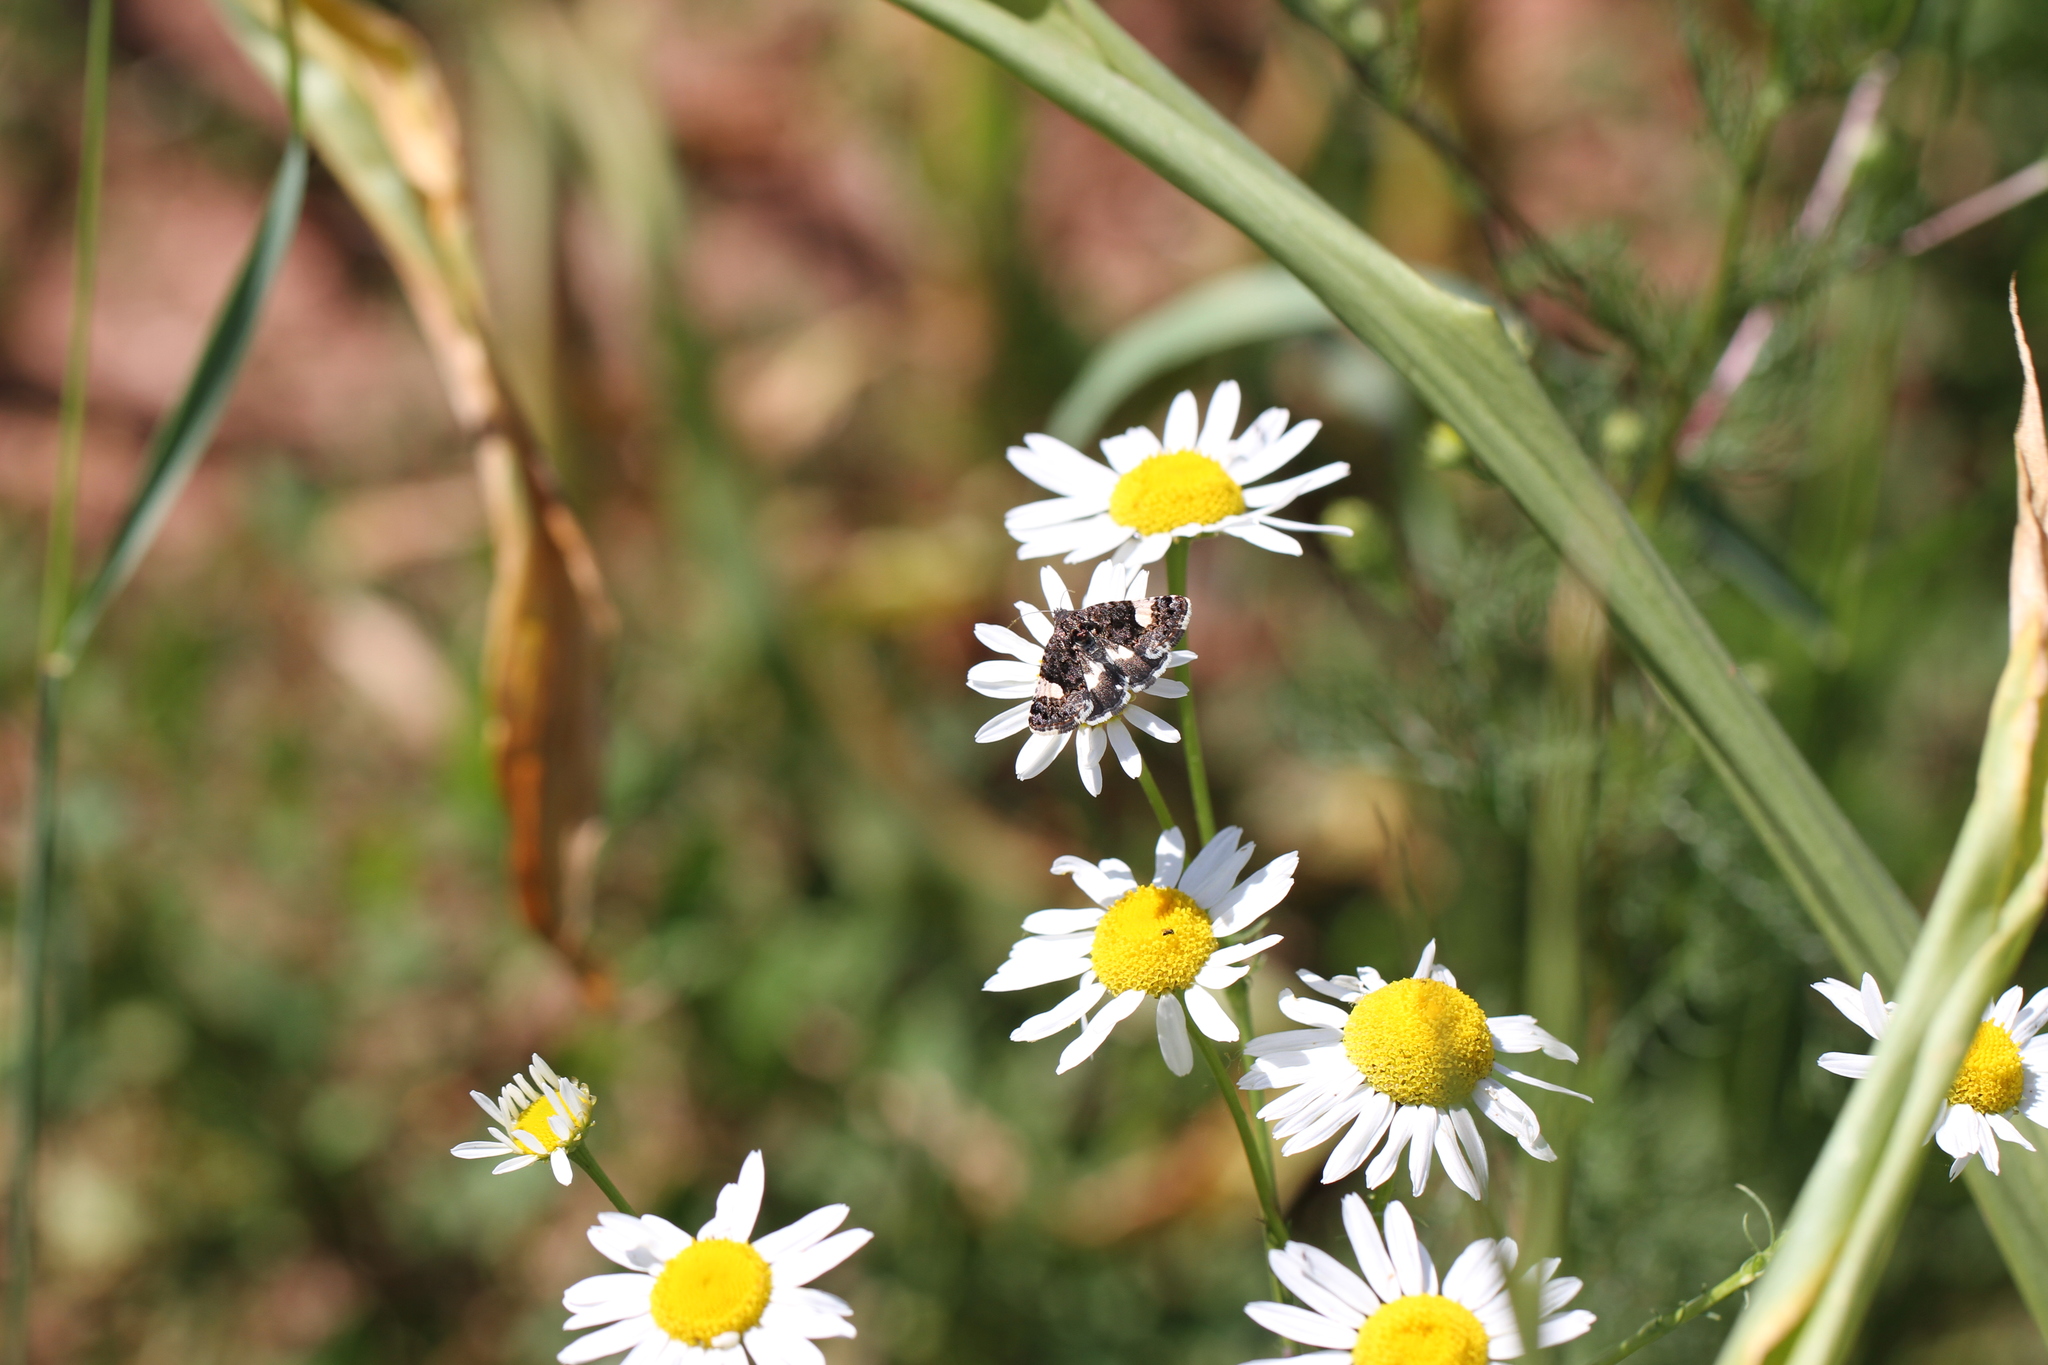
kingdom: Animalia
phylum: Arthropoda
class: Insecta
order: Lepidoptera
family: Erebidae
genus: Tyta
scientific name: Tyta luctuosa
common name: Four-spotted
